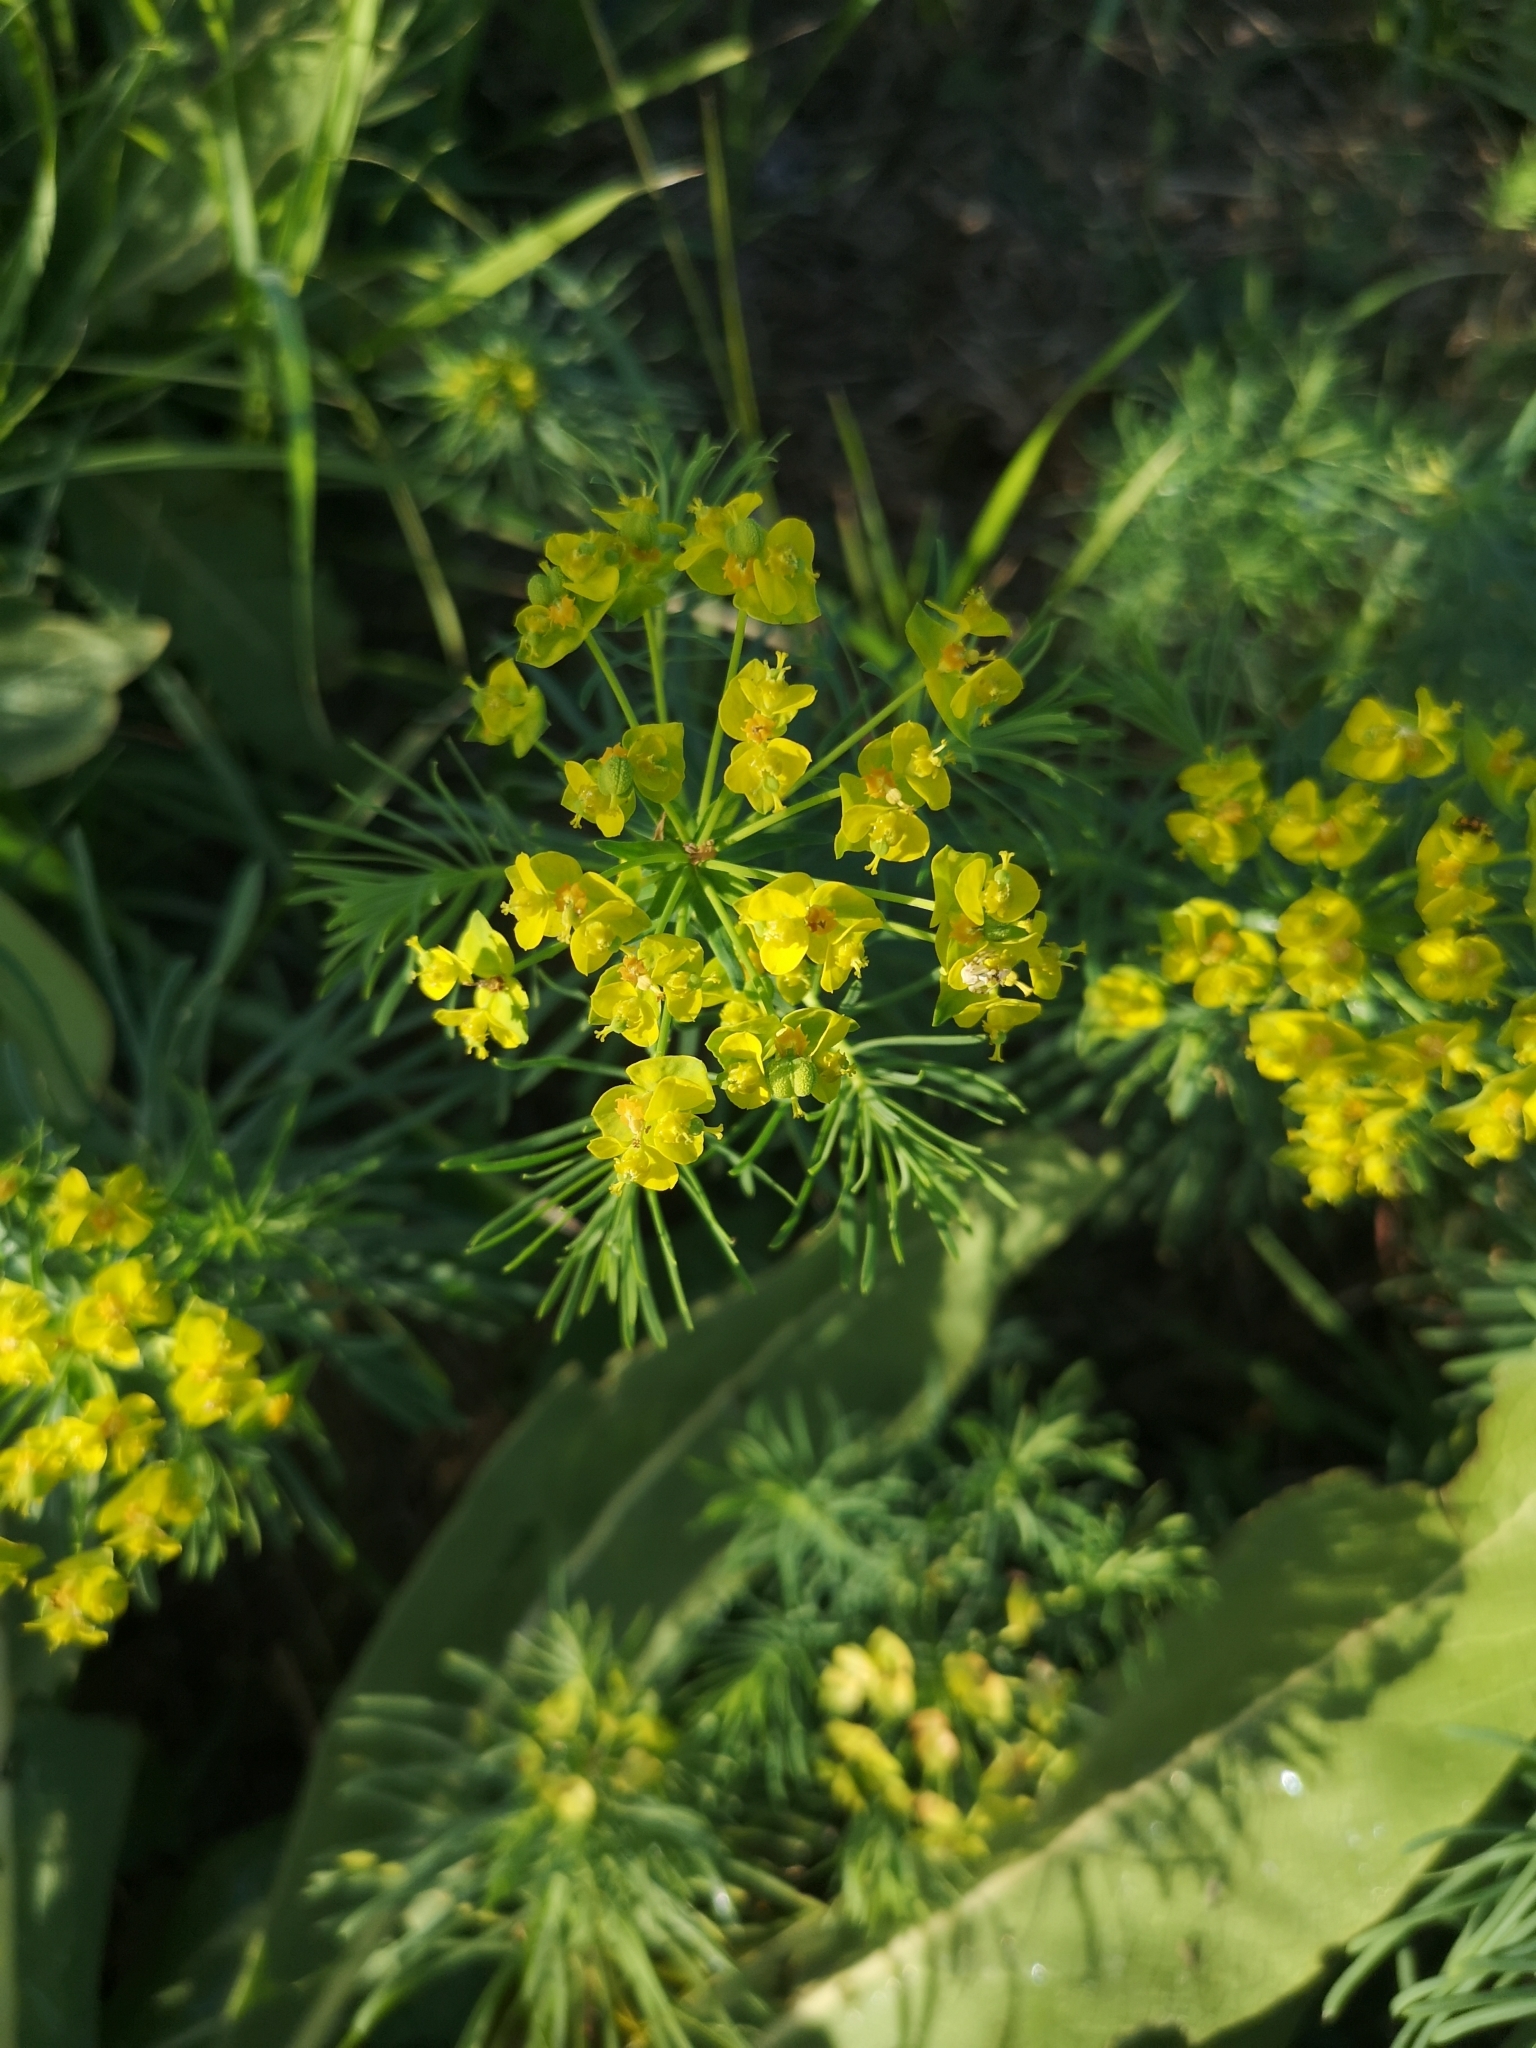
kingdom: Plantae
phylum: Tracheophyta
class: Magnoliopsida
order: Malpighiales
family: Euphorbiaceae
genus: Euphorbia
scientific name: Euphorbia cyparissias
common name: Cypress spurge
